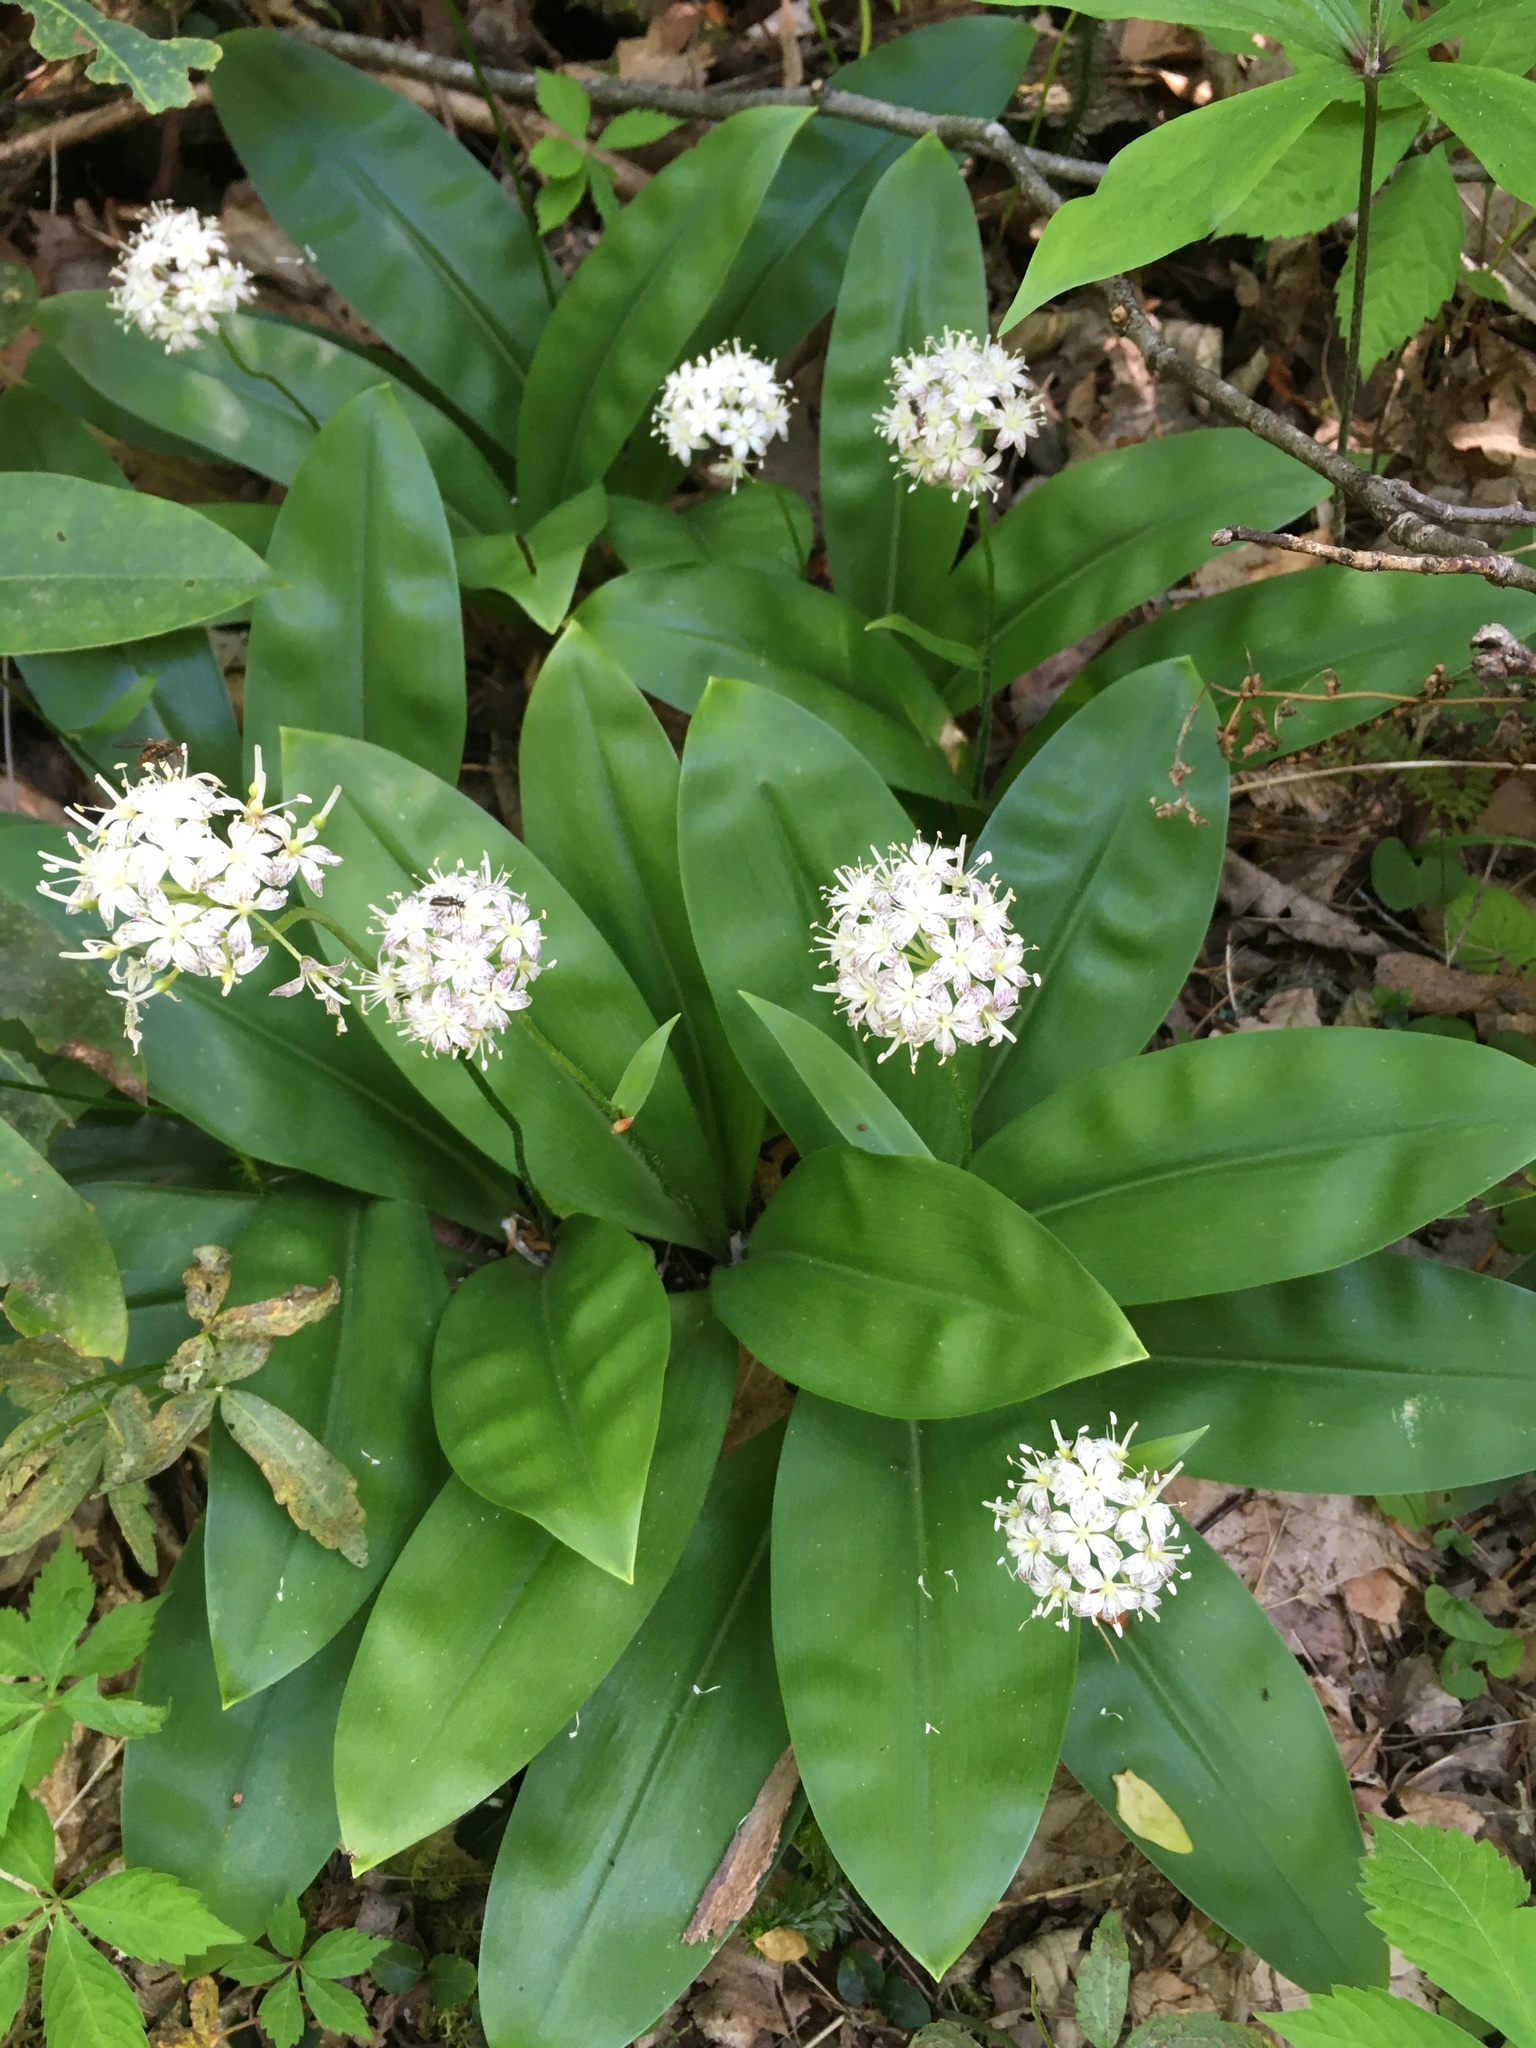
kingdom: Plantae
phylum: Tracheophyta
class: Liliopsida
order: Liliales
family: Liliaceae
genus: Clintonia
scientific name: Clintonia umbellulata
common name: Speckle wood-lily
